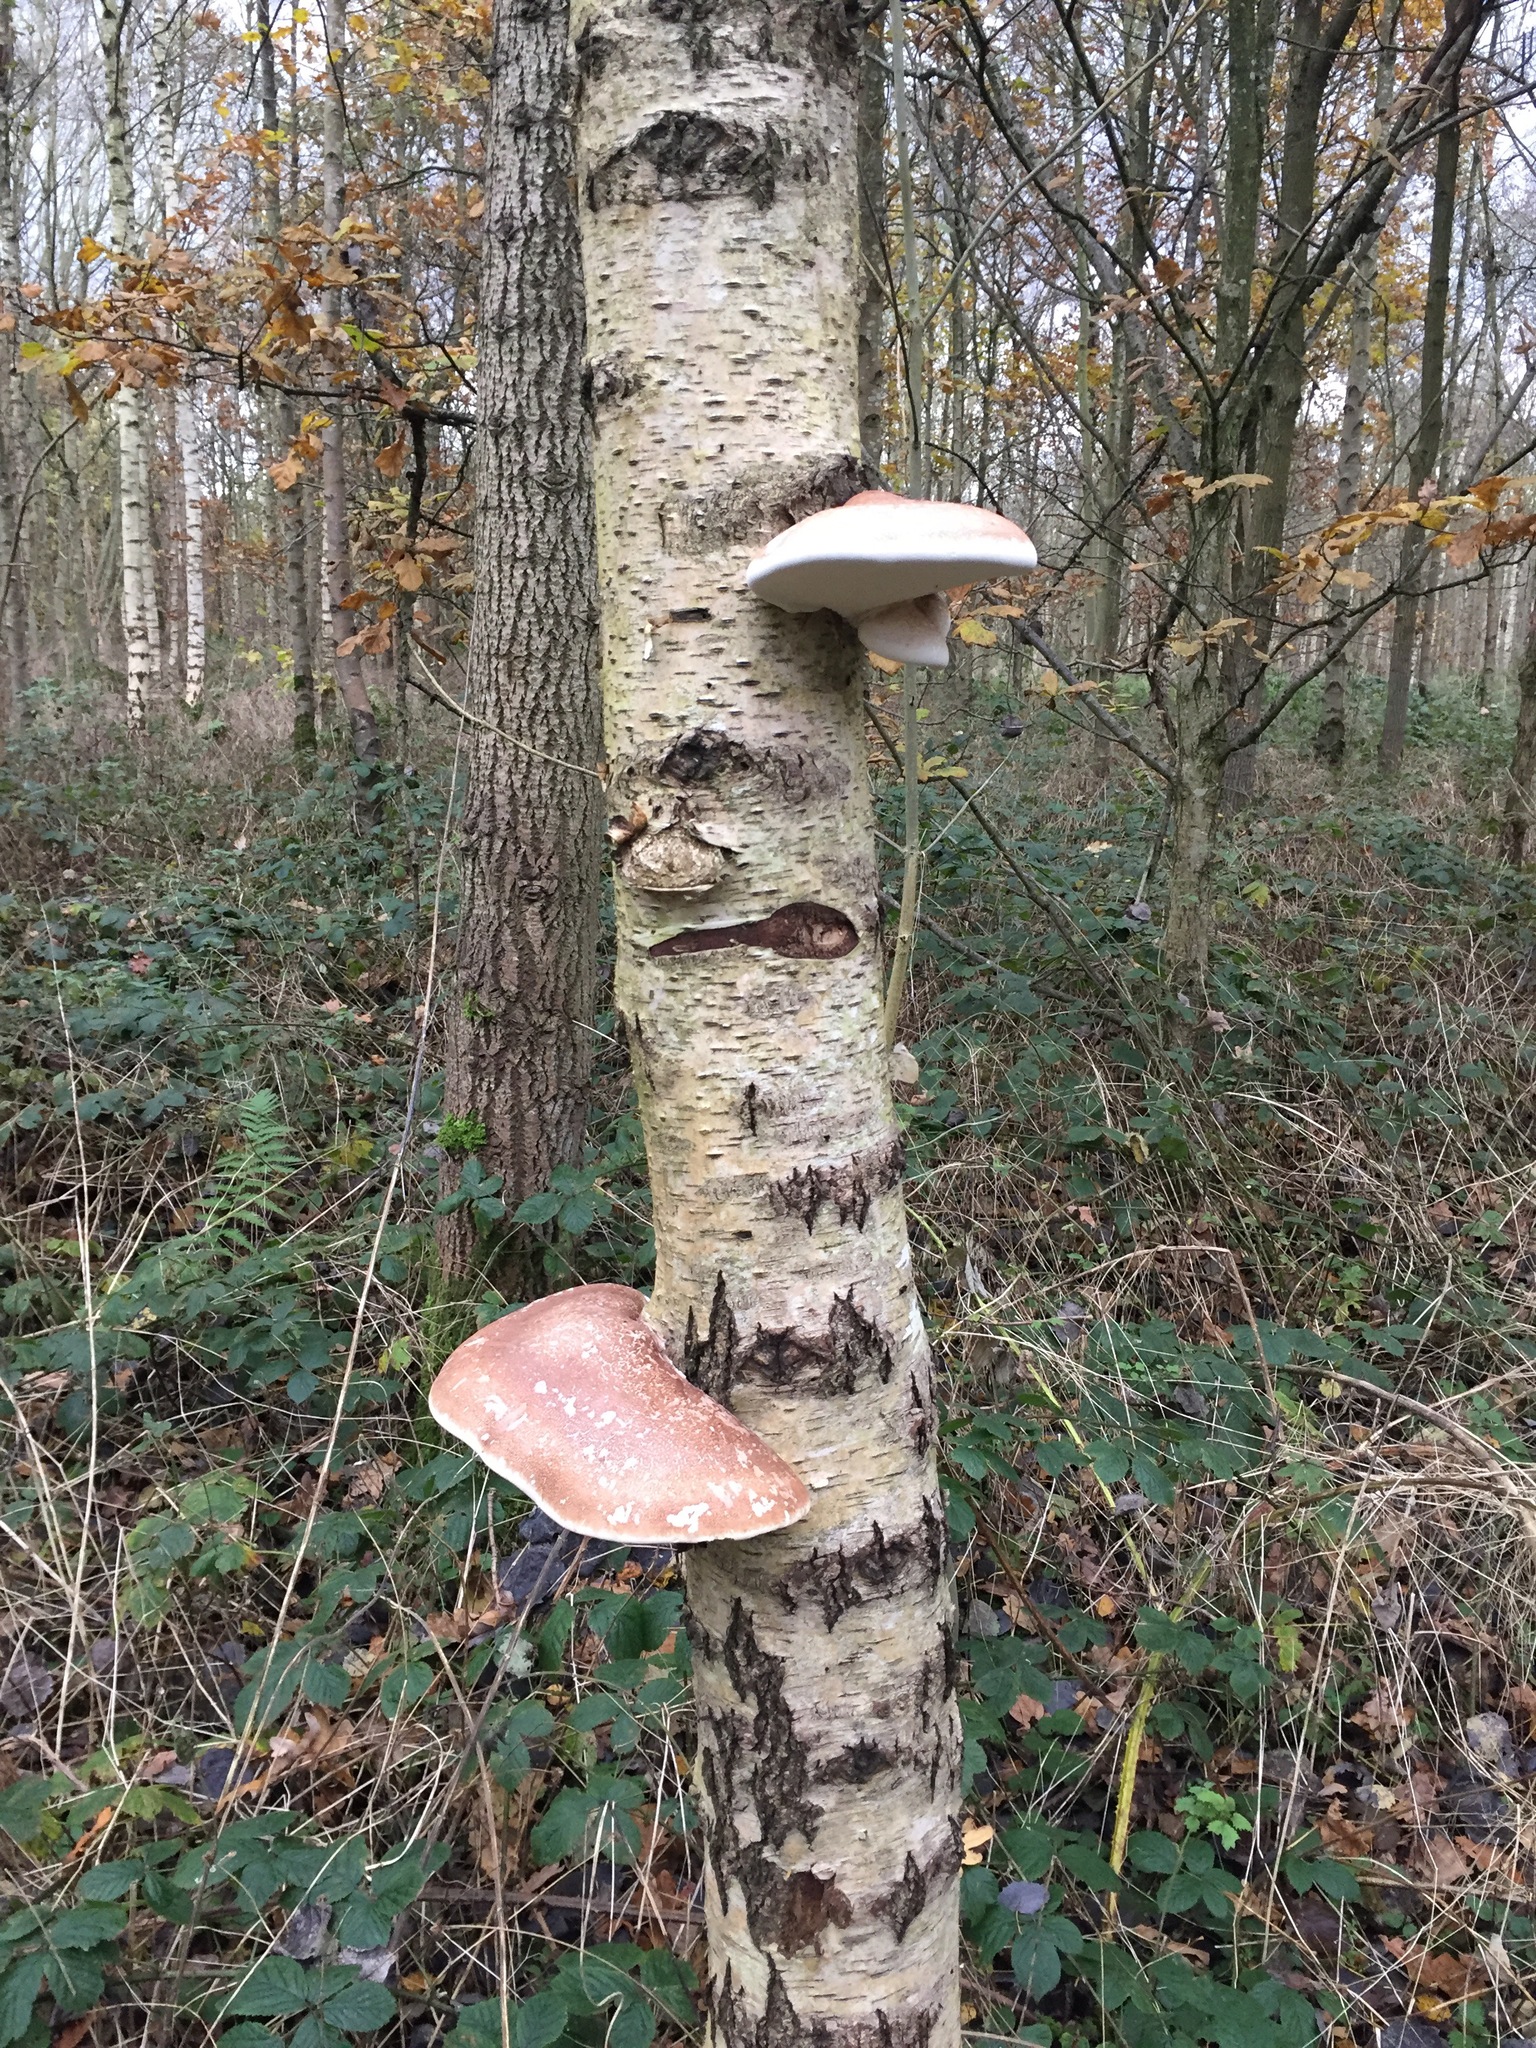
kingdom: Fungi
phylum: Basidiomycota
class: Agaricomycetes
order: Polyporales
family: Fomitopsidaceae
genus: Fomitopsis
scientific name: Fomitopsis betulina
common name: Birch polypore
